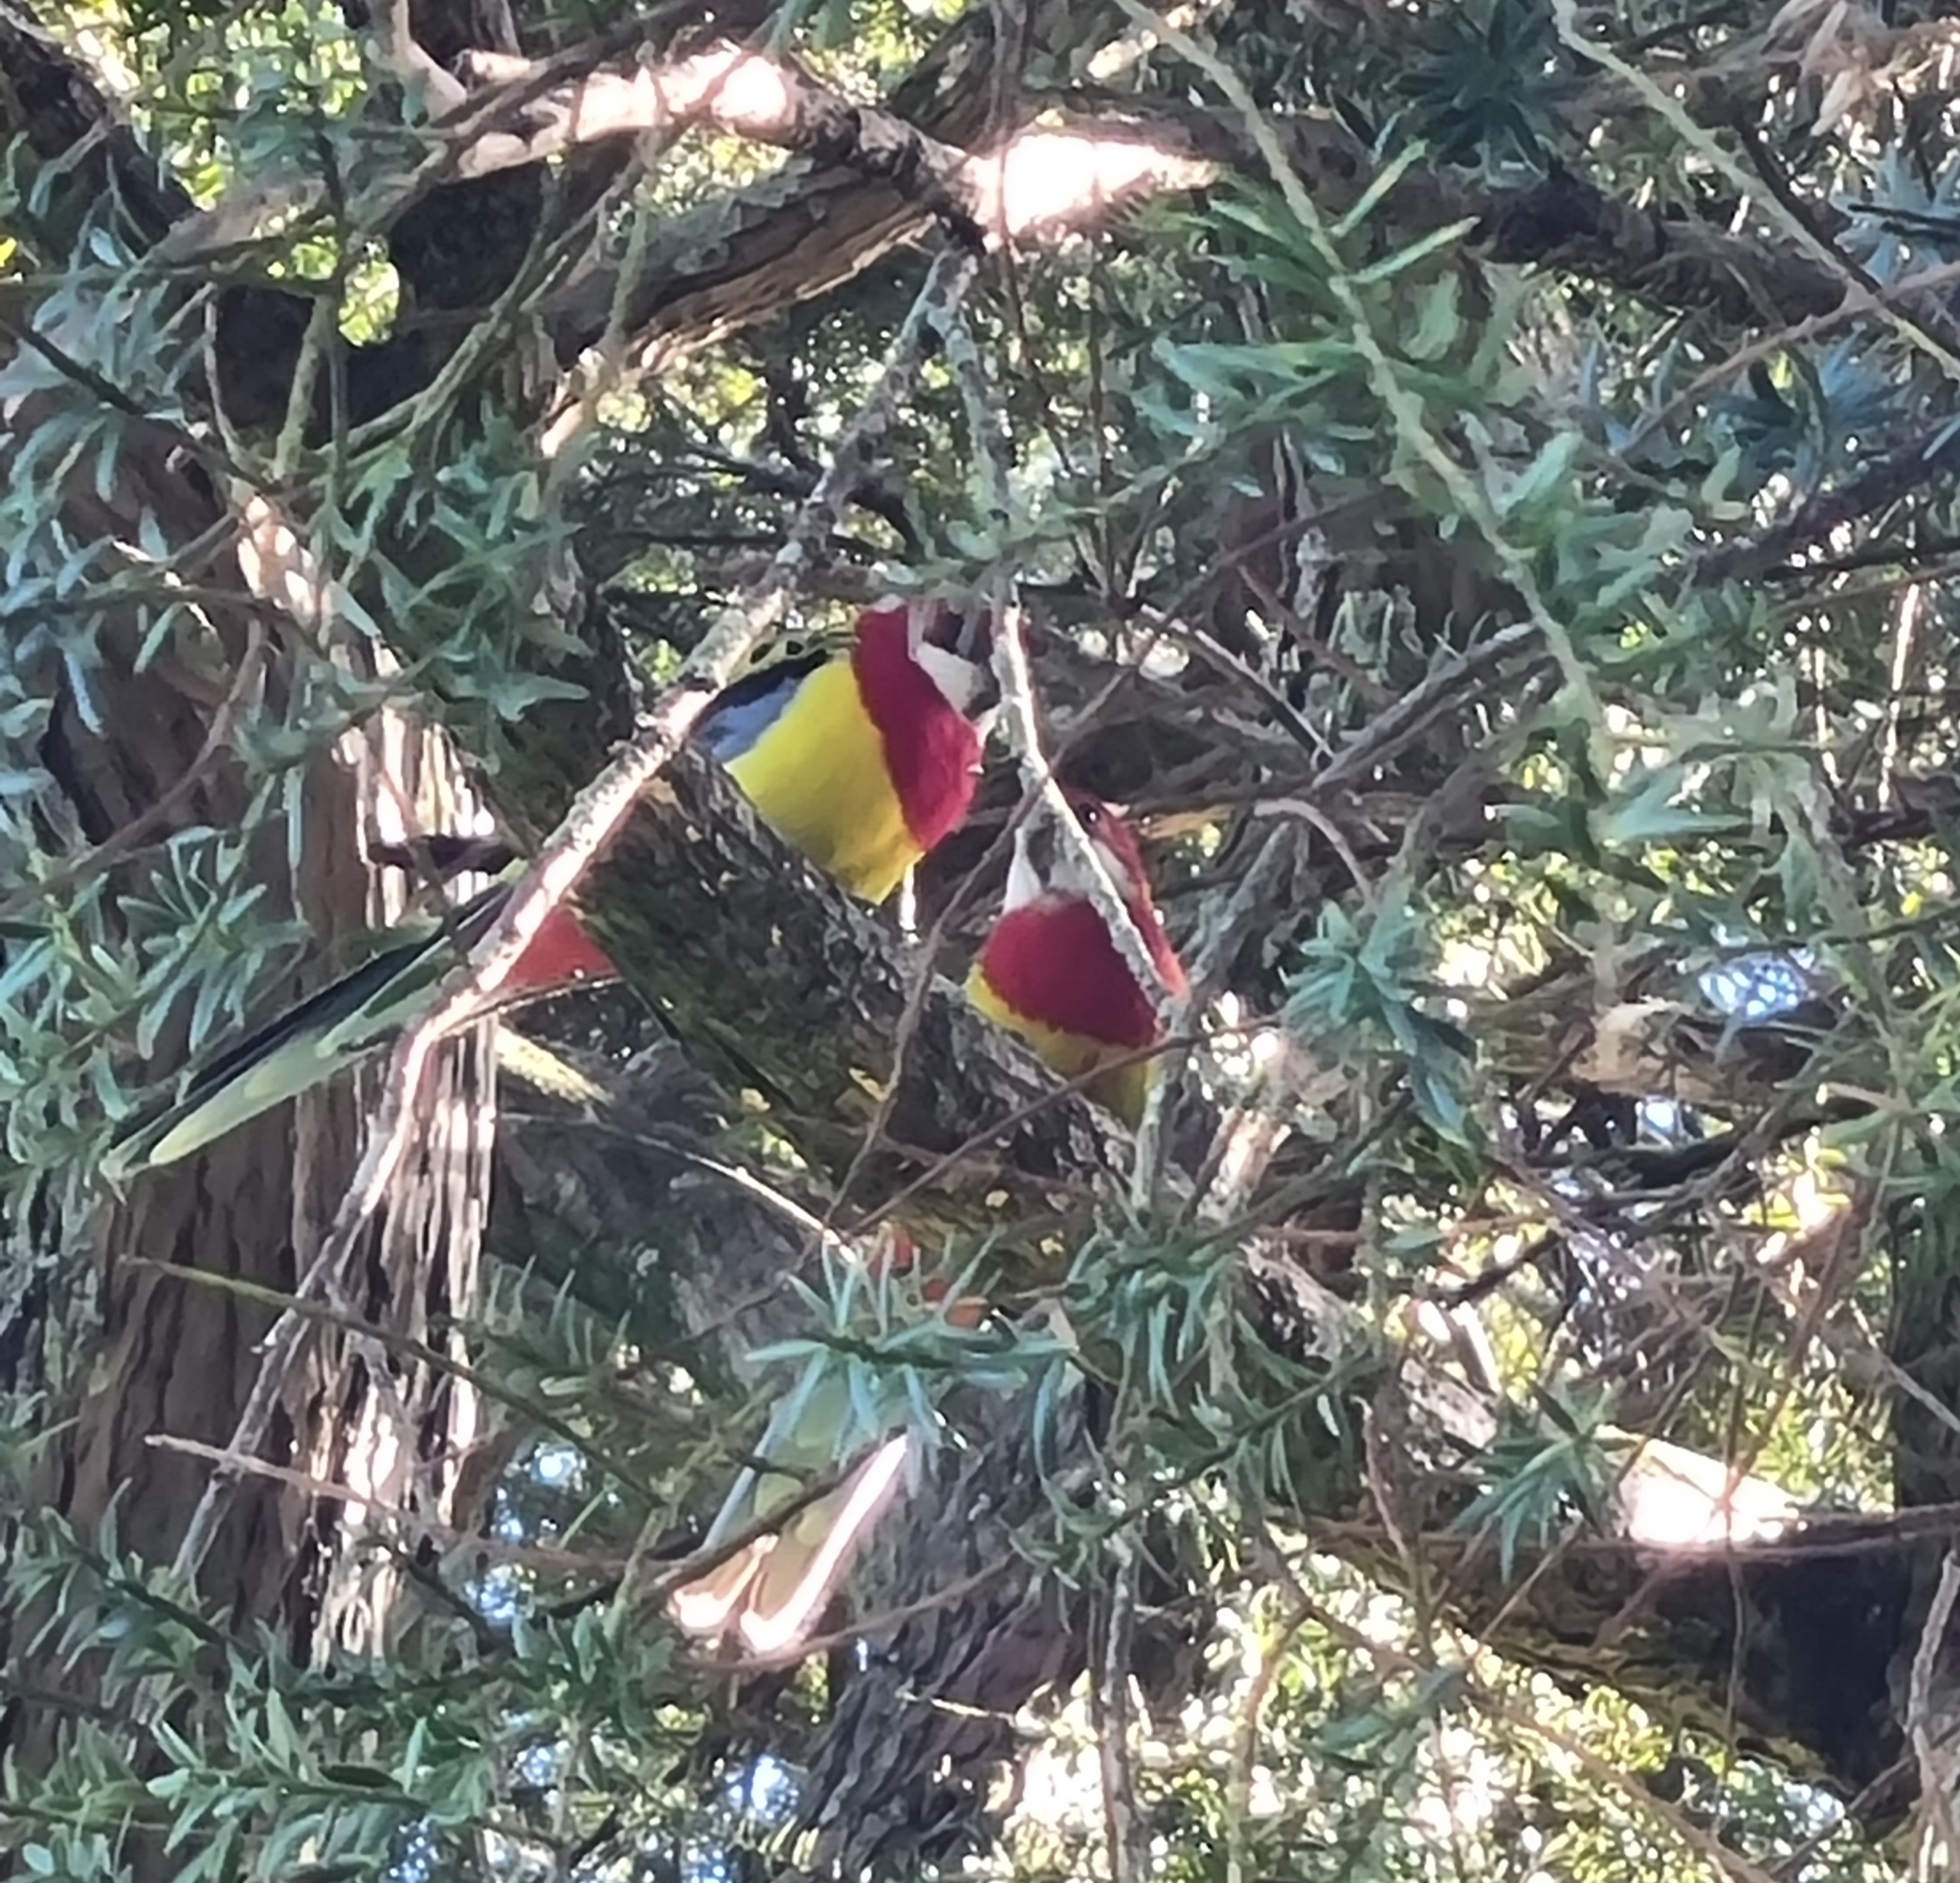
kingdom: Animalia
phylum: Chordata
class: Aves
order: Psittaciformes
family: Psittacidae
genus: Platycercus
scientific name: Platycercus eximius
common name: Eastern rosella
